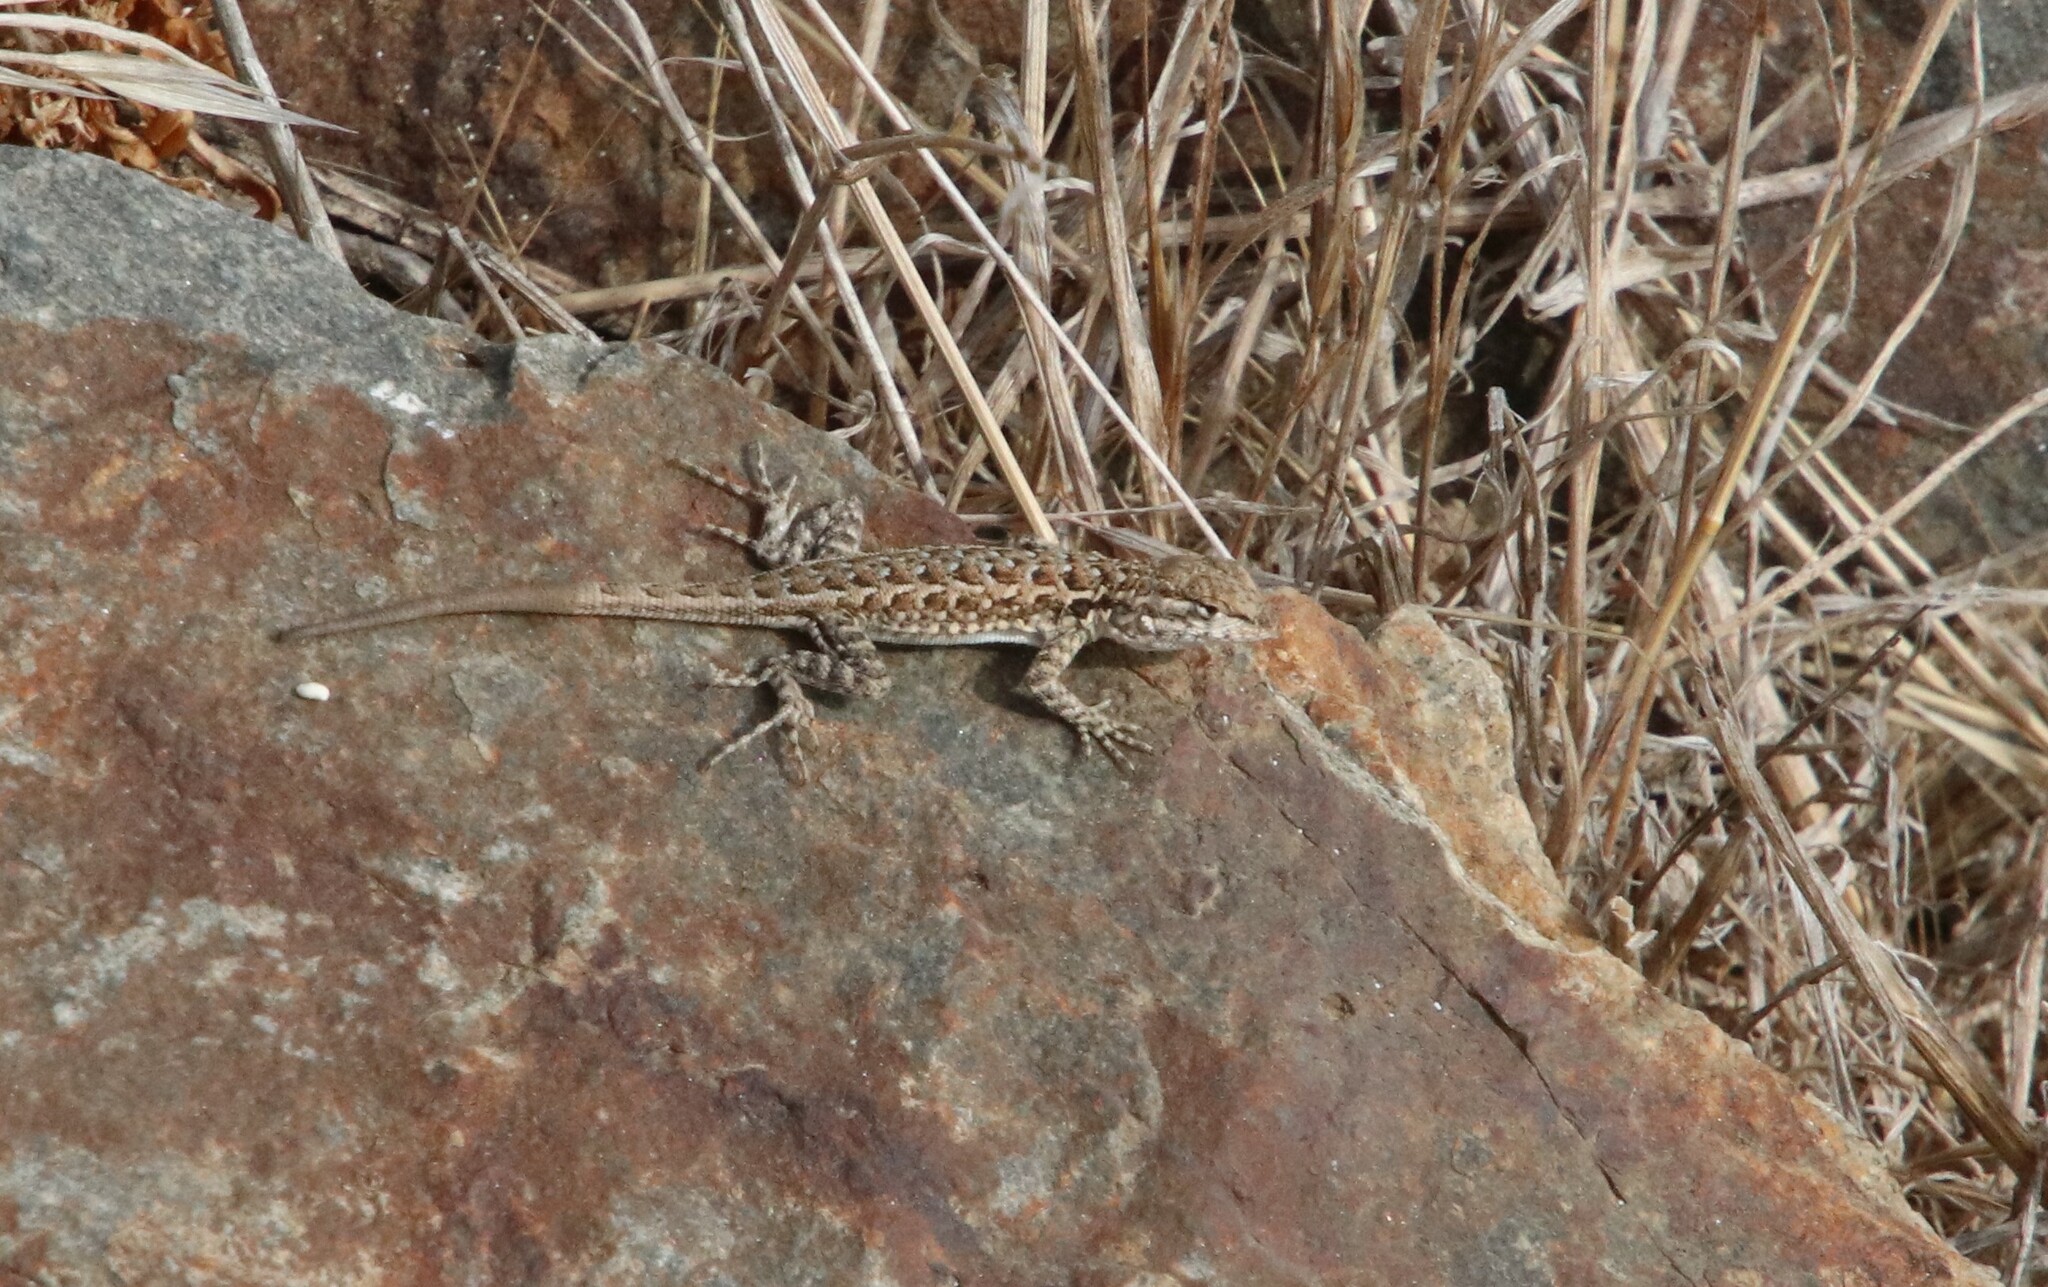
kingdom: Animalia
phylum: Chordata
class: Squamata
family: Phrynosomatidae
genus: Uta
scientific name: Uta stansburiana
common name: Side-blotched lizard
